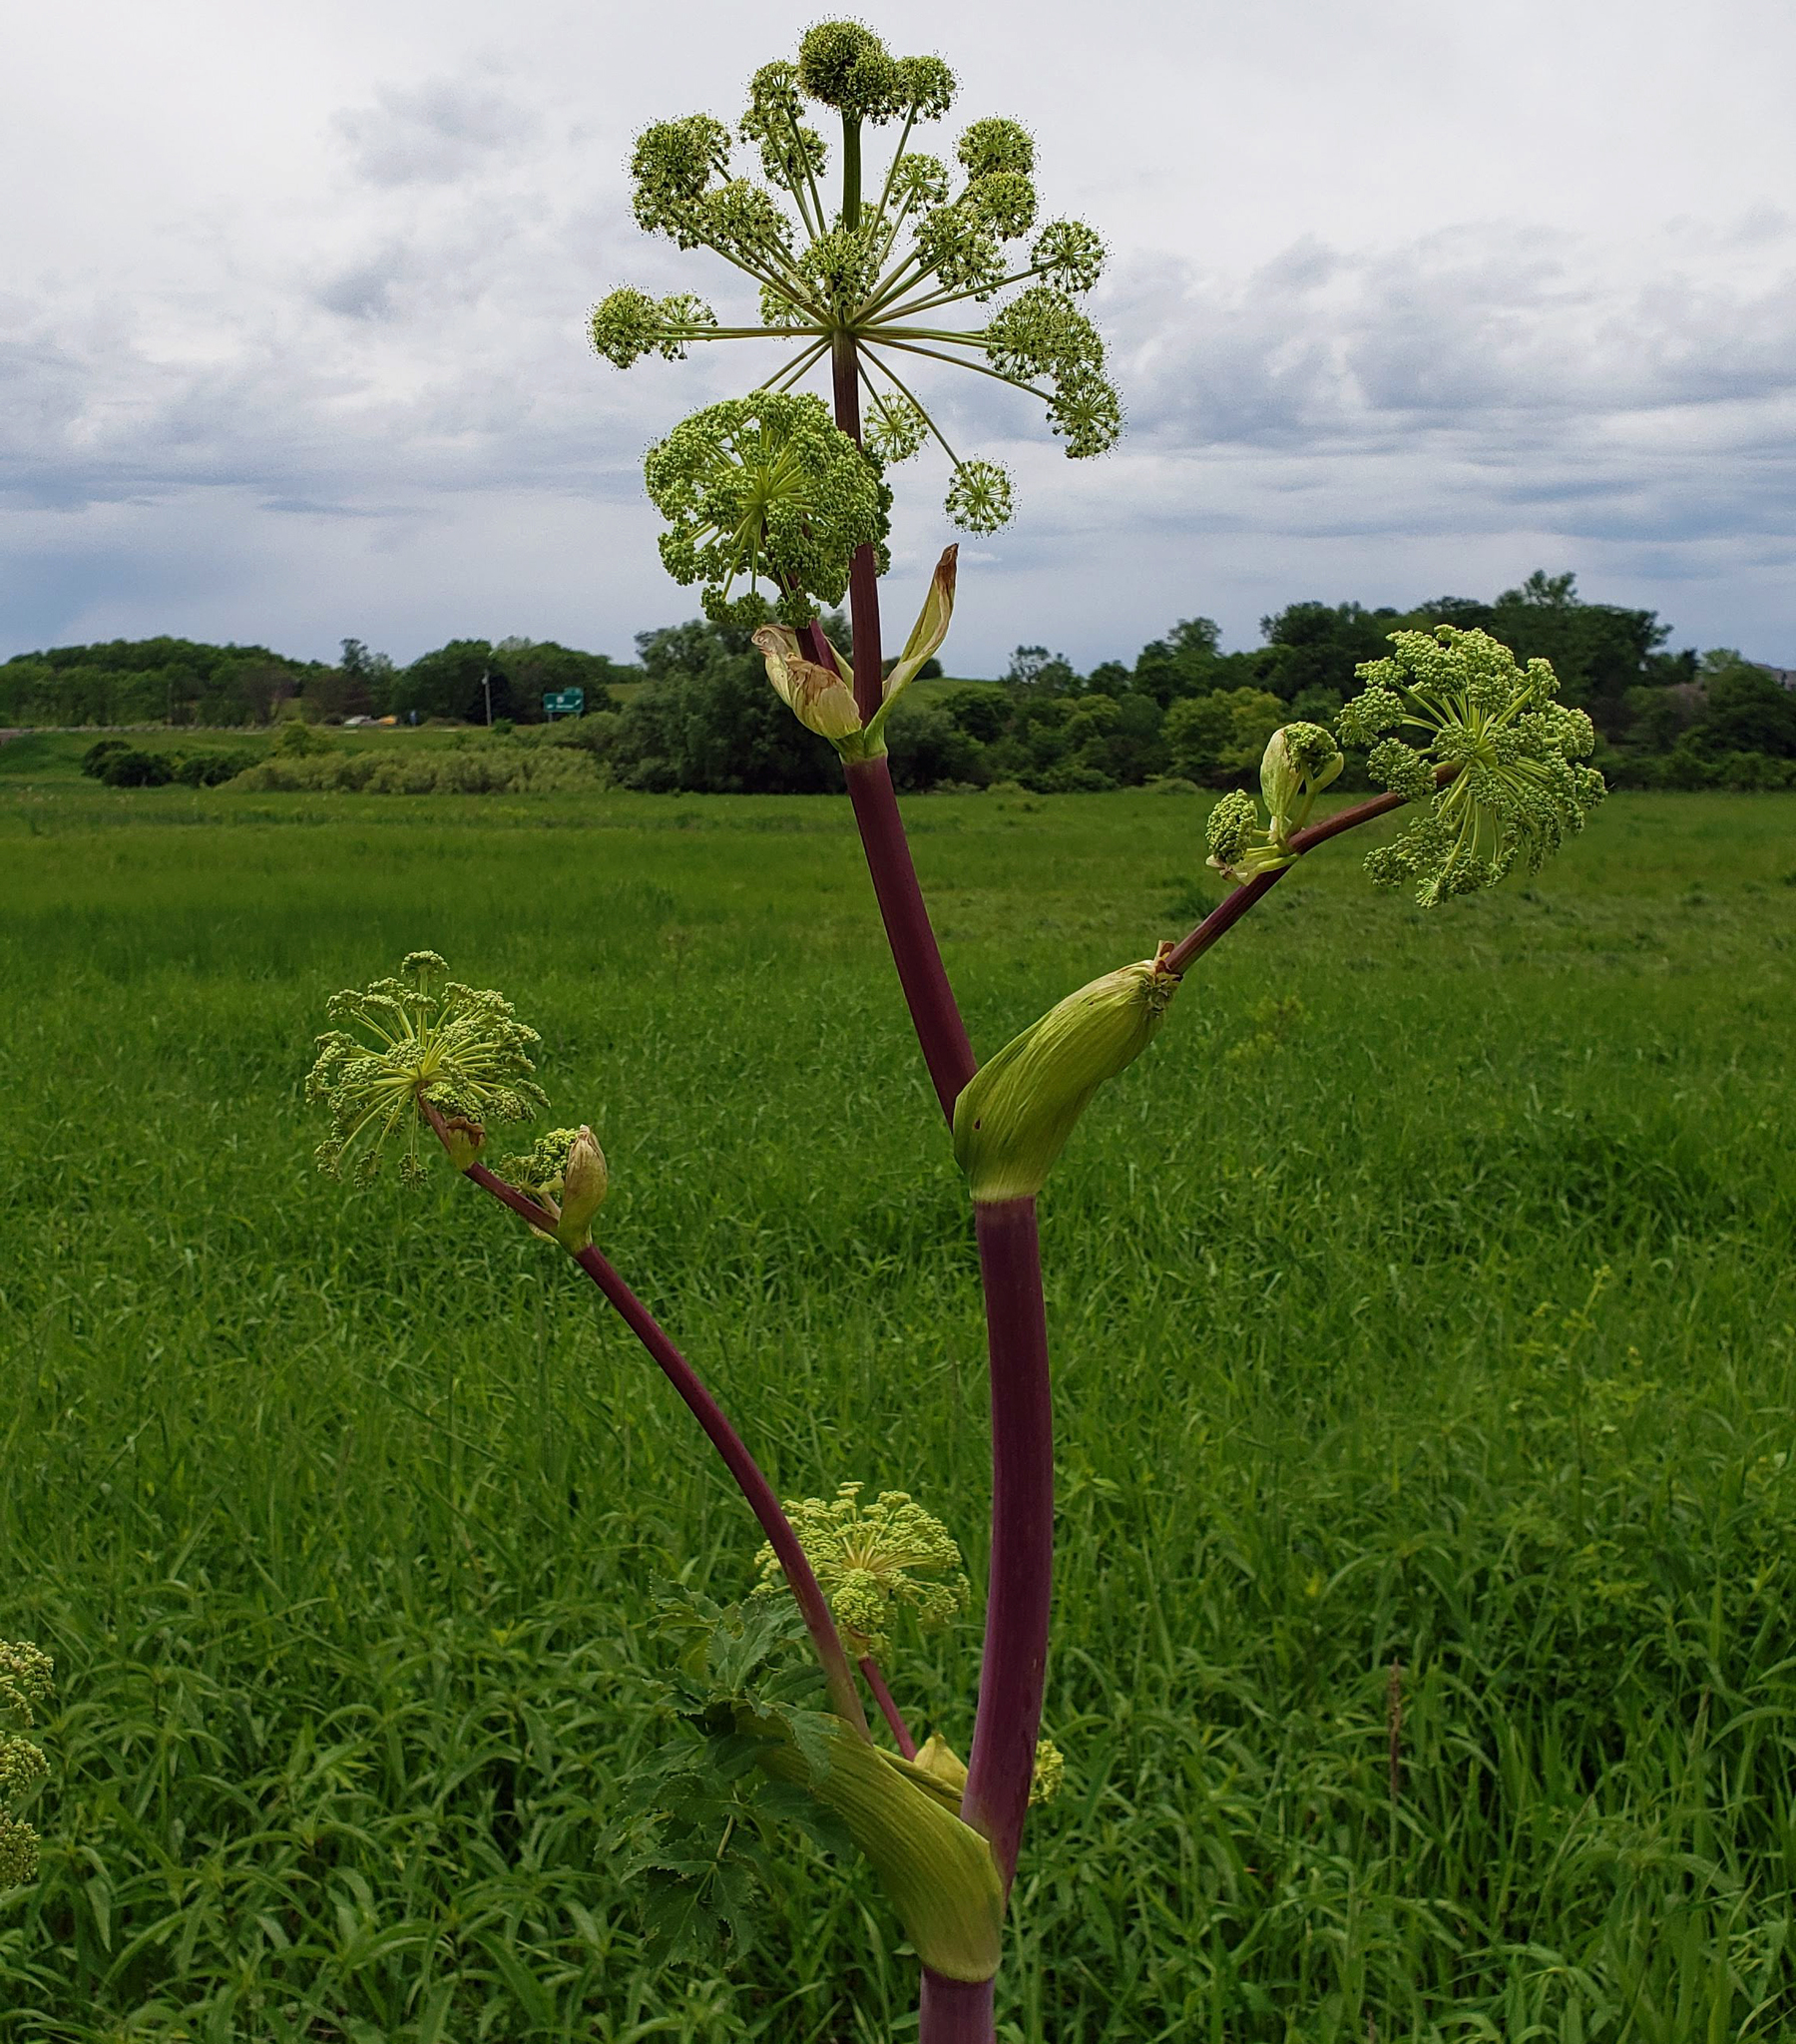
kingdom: Plantae
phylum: Tracheophyta
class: Magnoliopsida
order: Apiales
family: Apiaceae
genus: Angelica
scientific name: Angelica atropurpurea
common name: Great angelica
